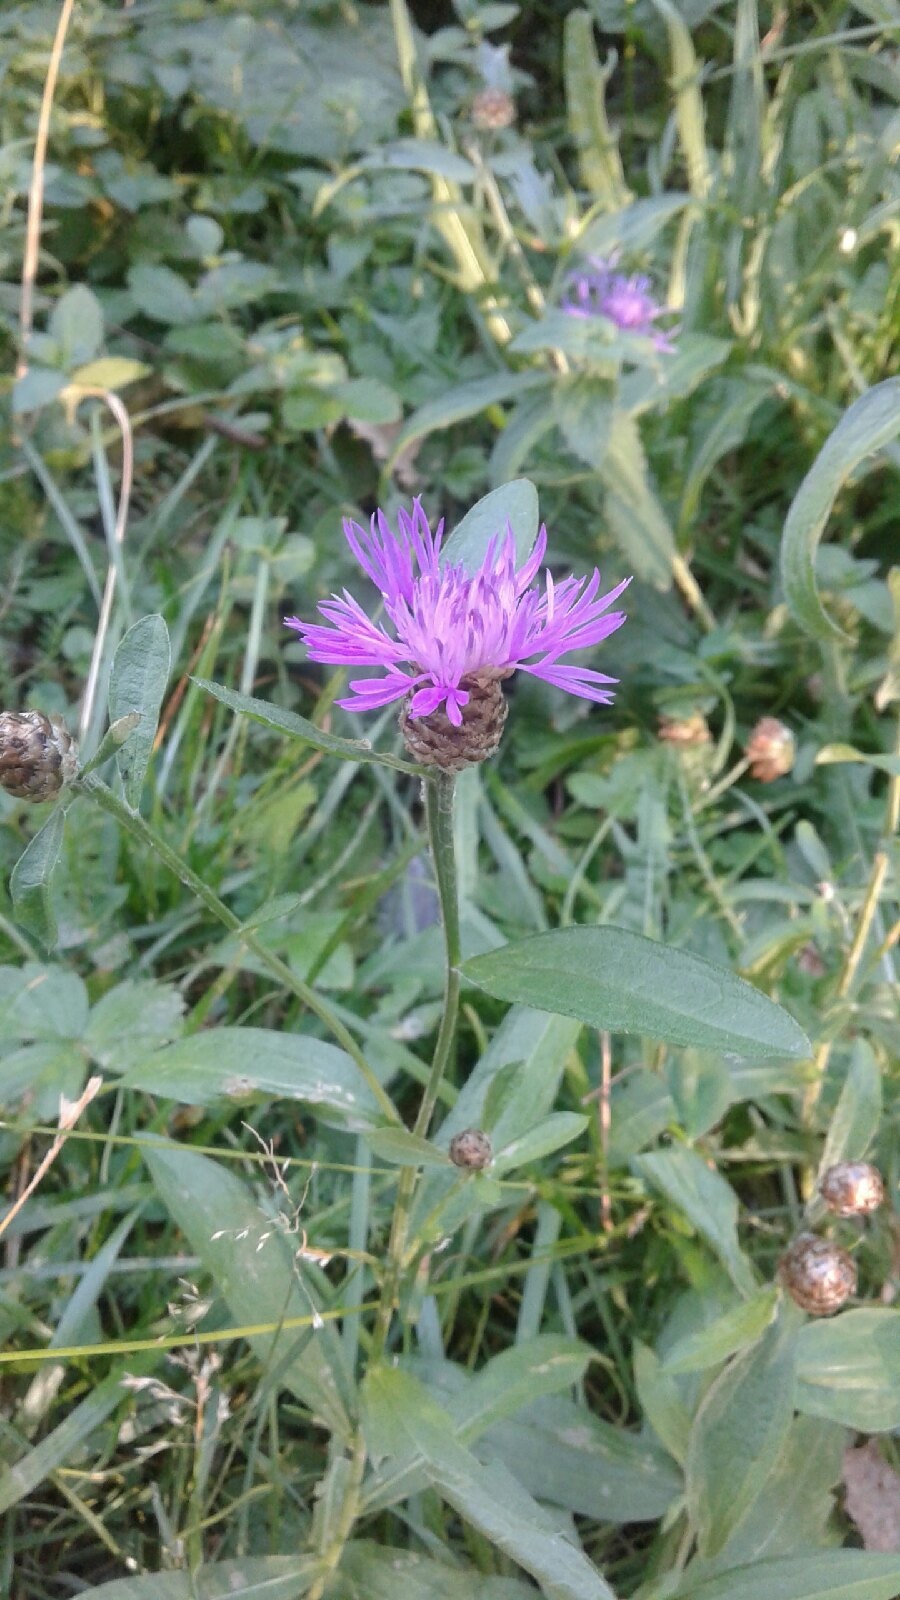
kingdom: Plantae
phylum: Tracheophyta
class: Magnoliopsida
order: Asterales
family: Asteraceae
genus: Centaurea
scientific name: Centaurea jacea
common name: Brown knapweed
